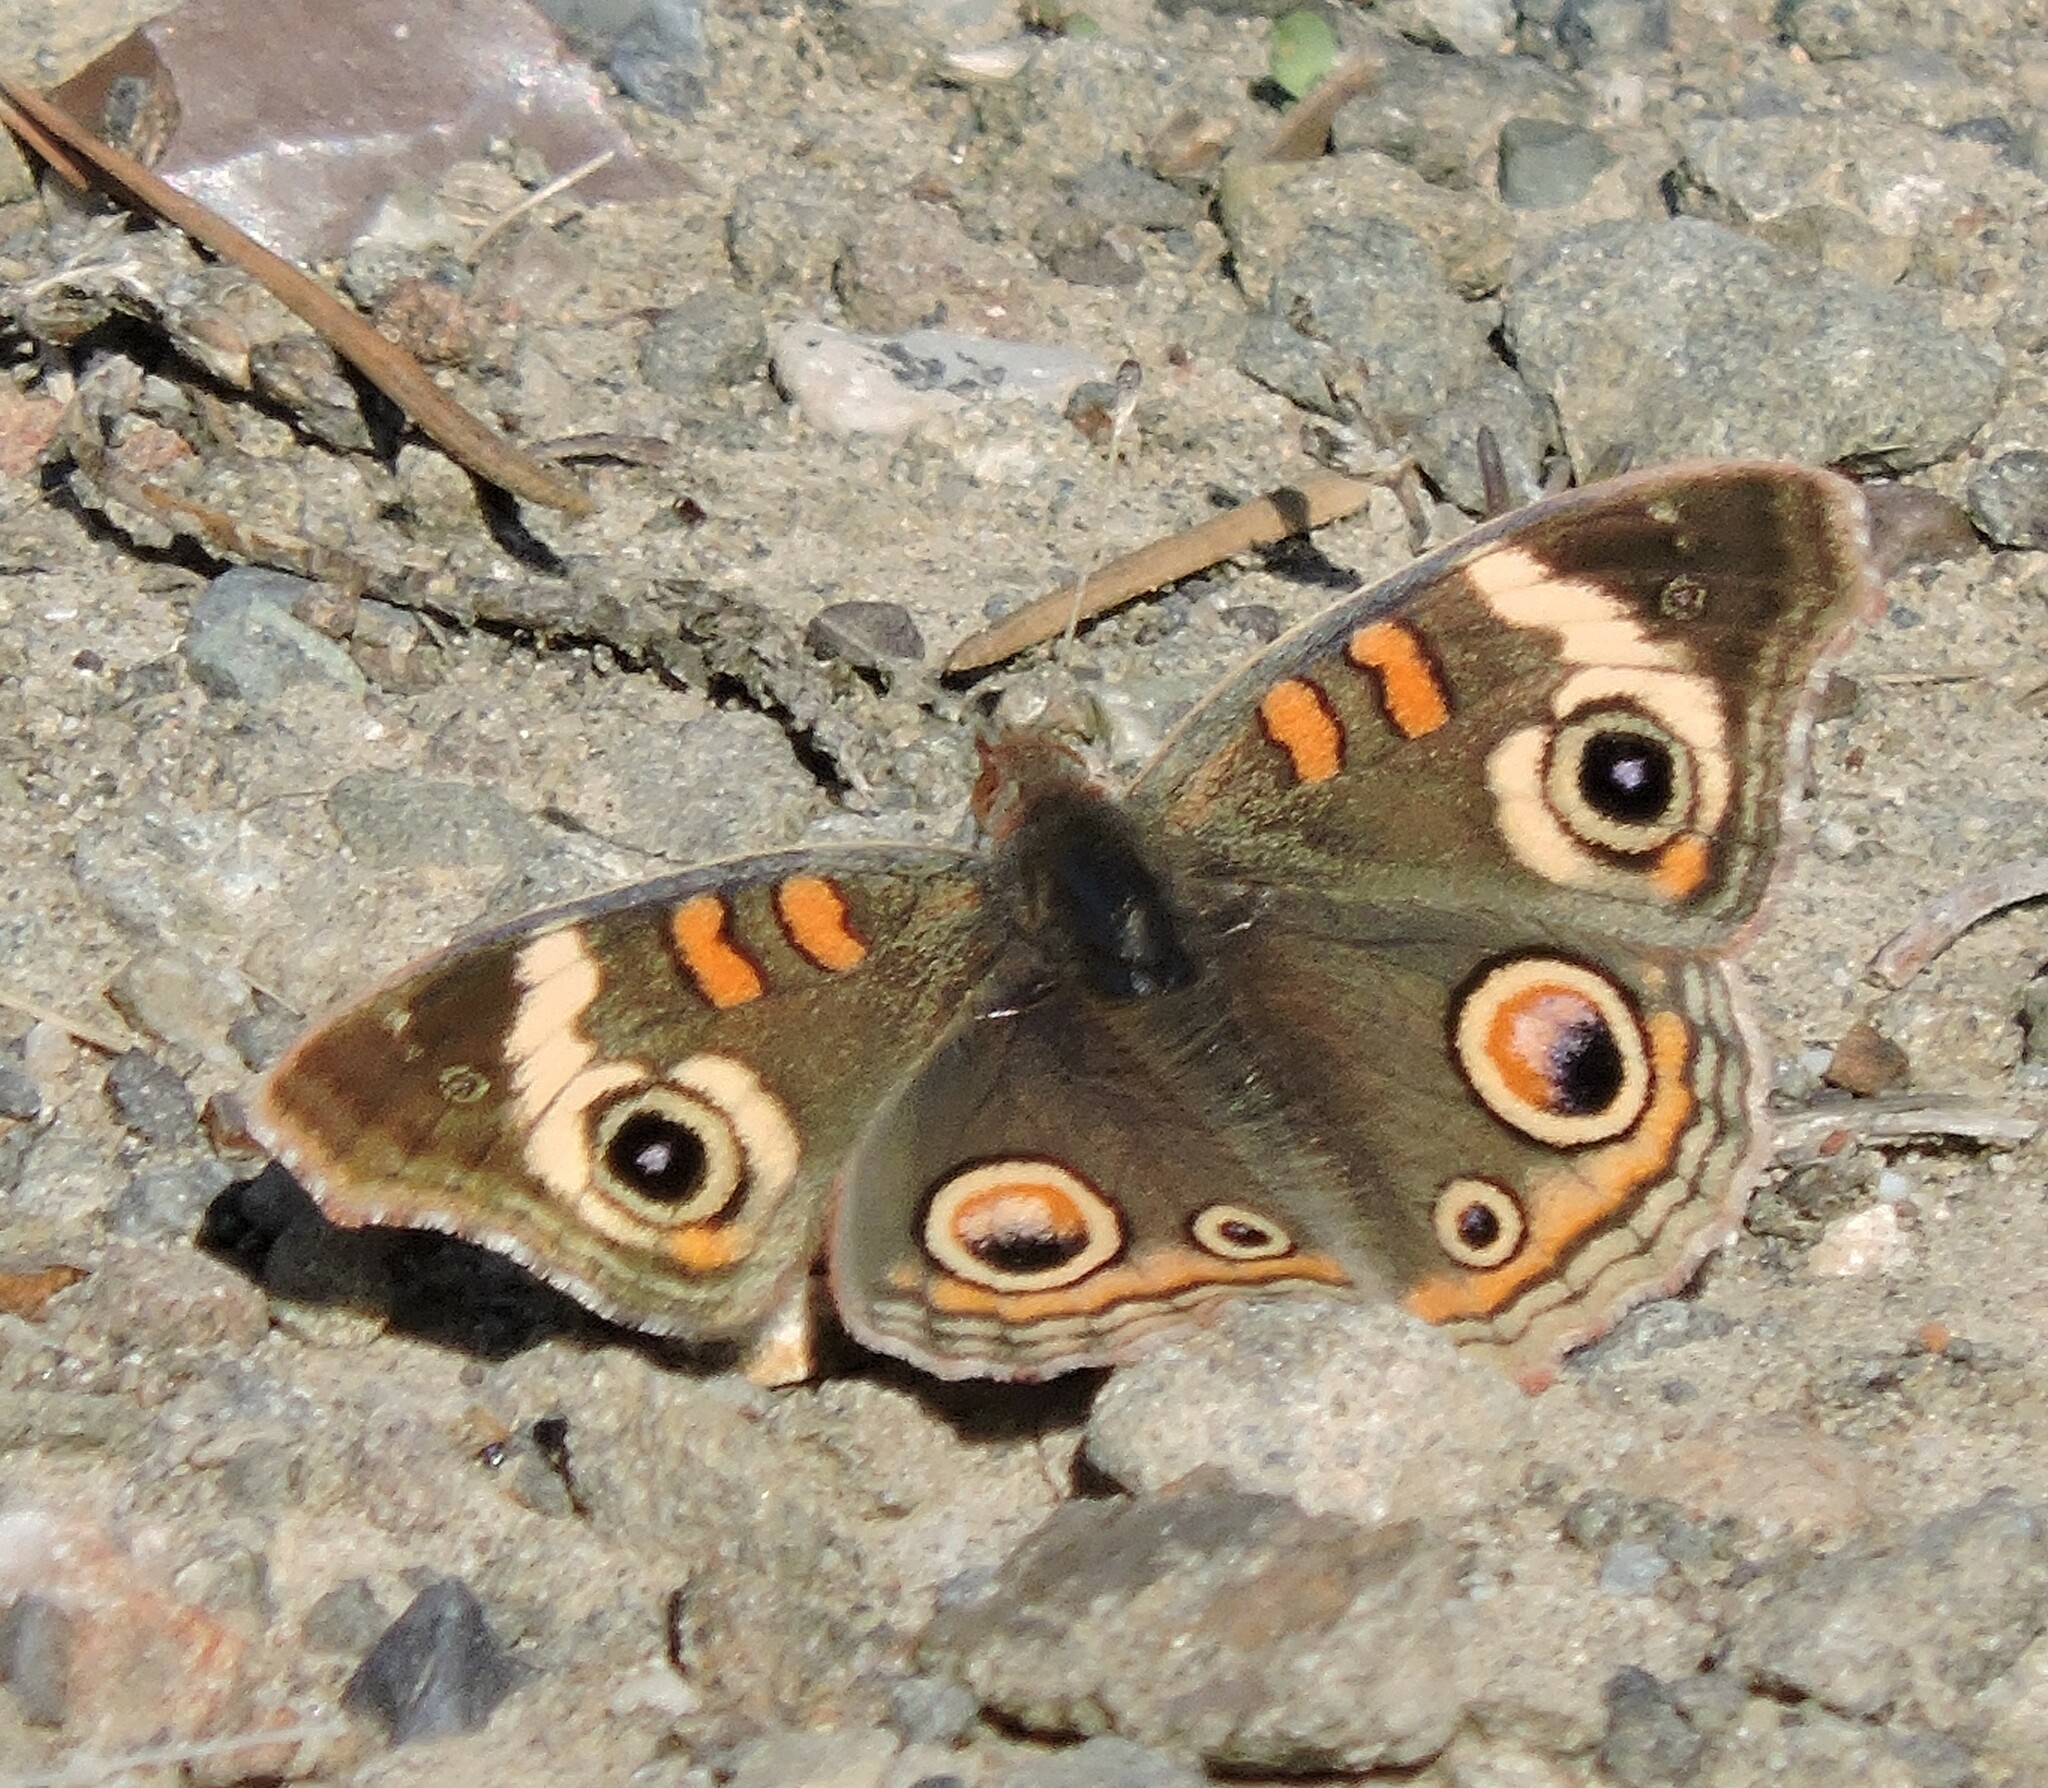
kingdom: Animalia
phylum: Arthropoda
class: Insecta
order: Lepidoptera
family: Nymphalidae
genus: Junonia
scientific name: Junonia grisea
